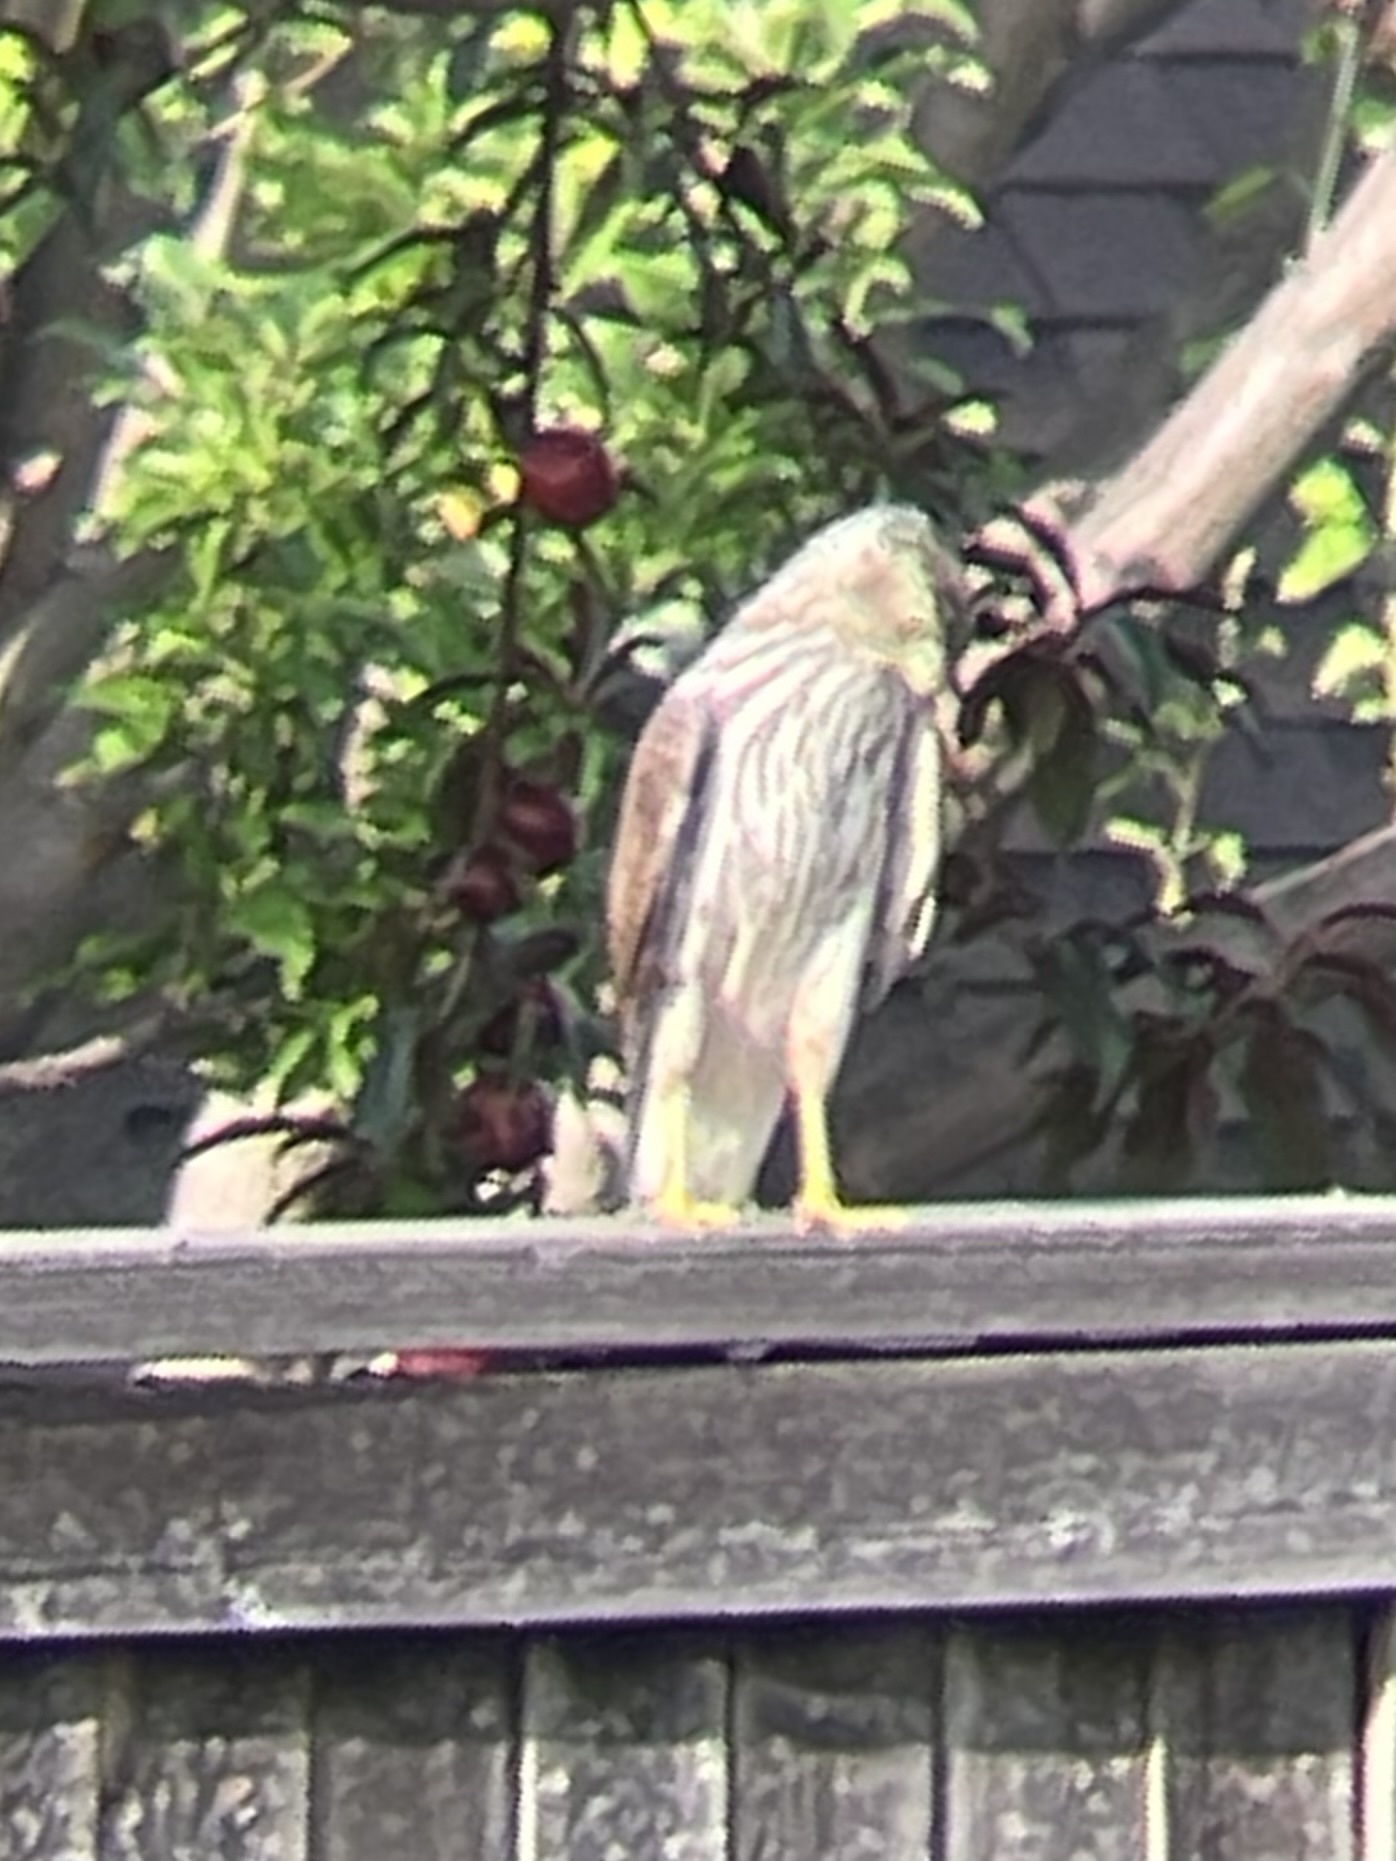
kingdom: Animalia
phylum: Chordata
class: Aves
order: Accipitriformes
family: Accipitridae
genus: Accipiter
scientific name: Accipiter cooperii
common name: Cooper's hawk
